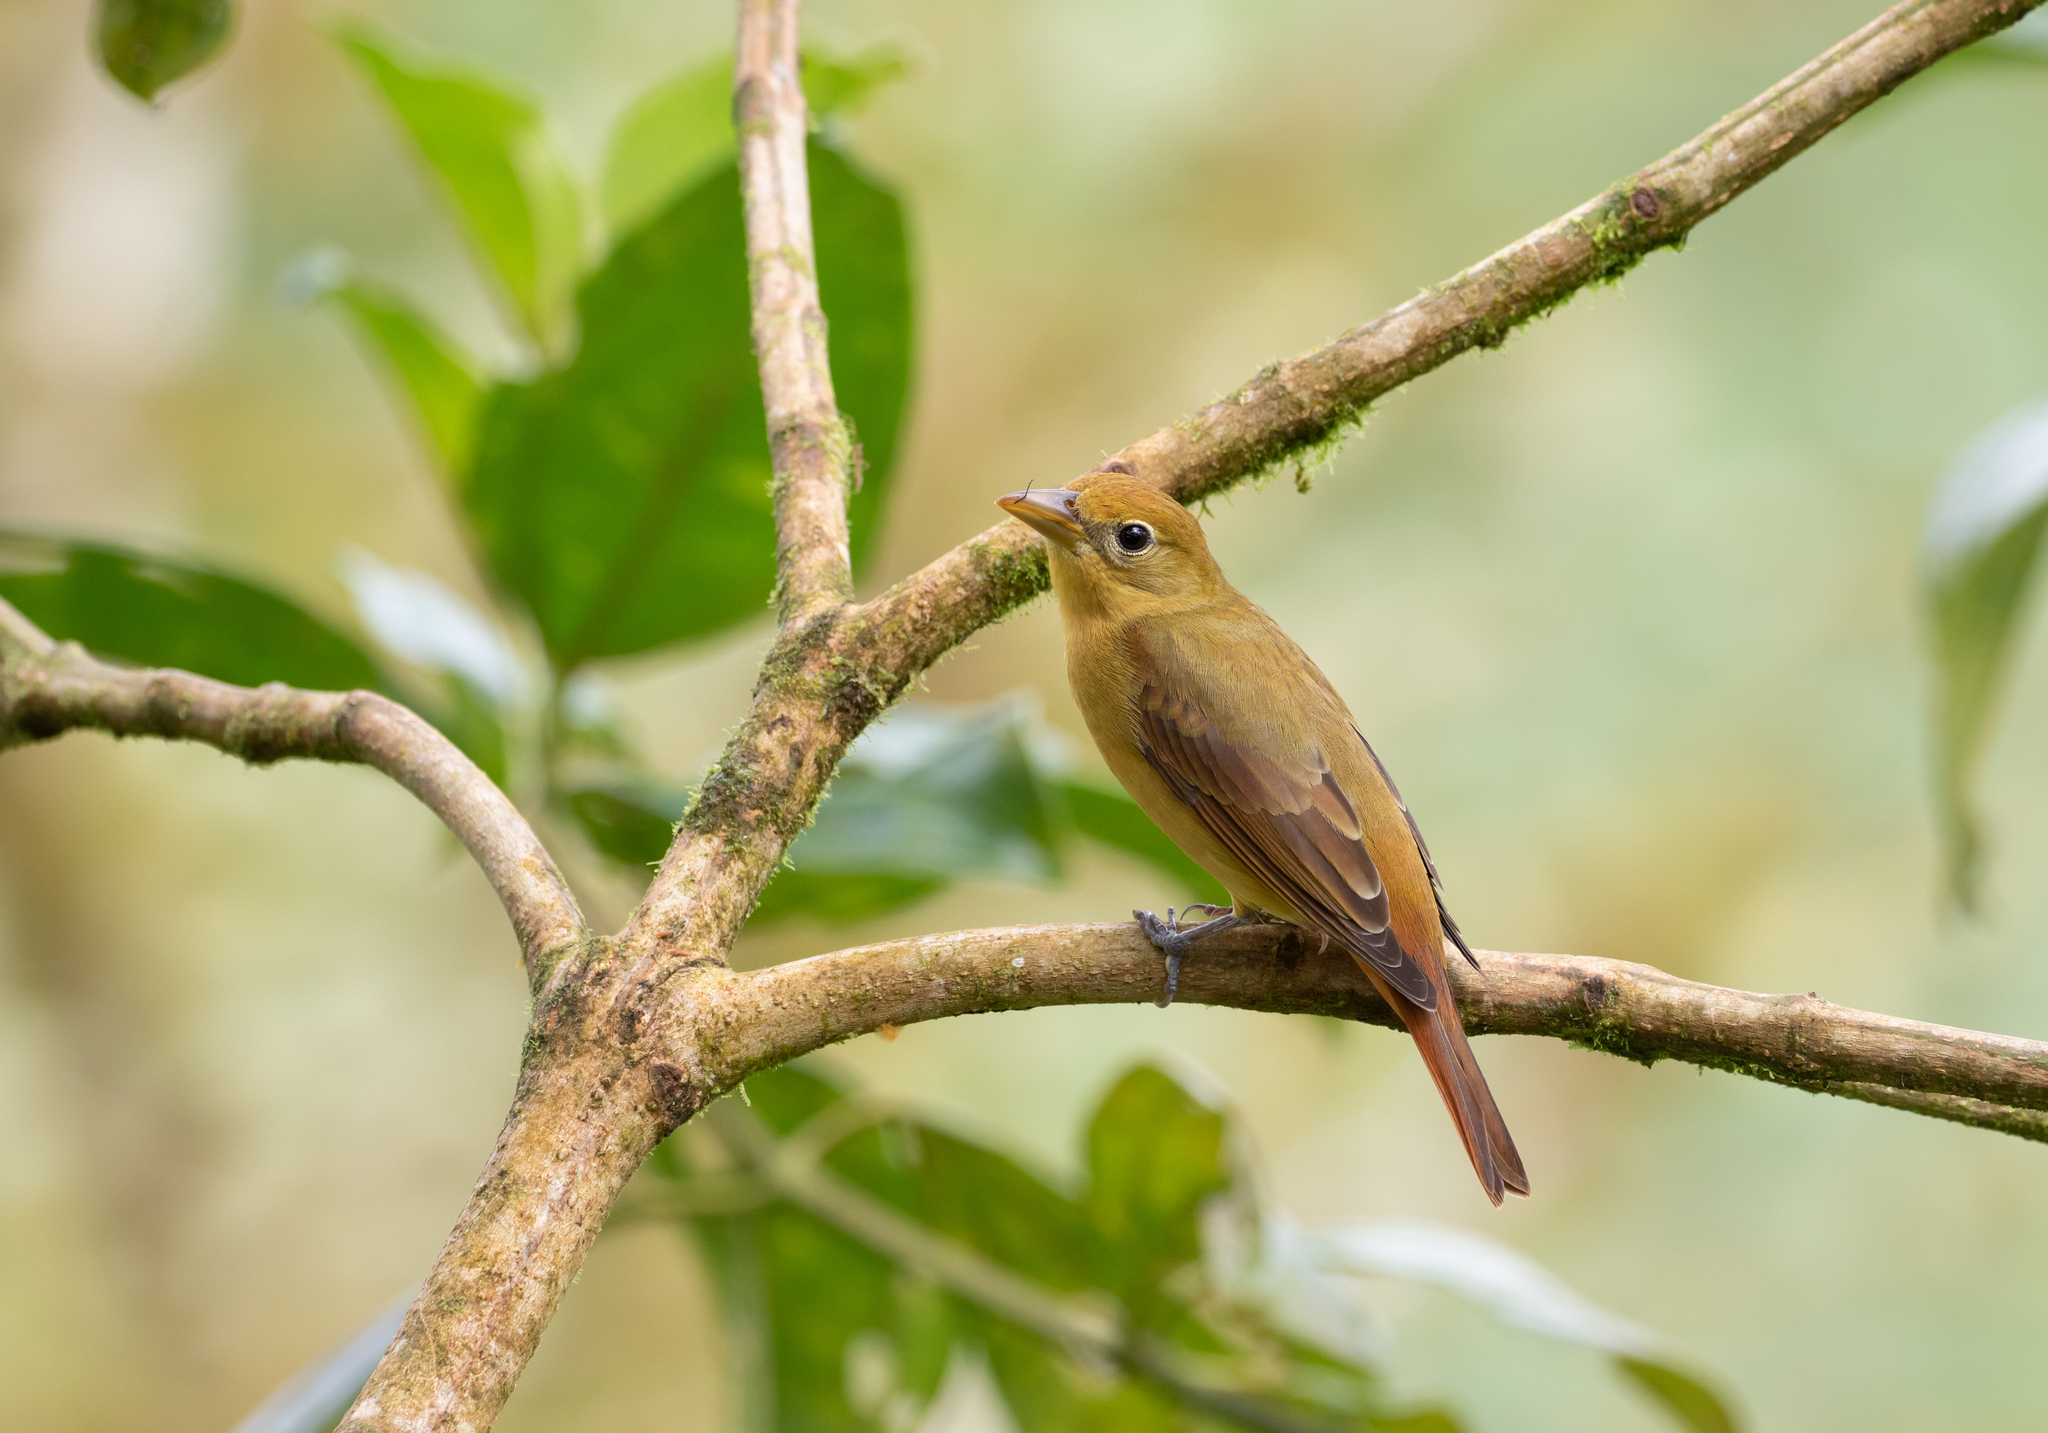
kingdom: Animalia
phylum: Chordata
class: Aves
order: Passeriformes
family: Cardinalidae
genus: Piranga
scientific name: Piranga rubra
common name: Summer tanager
